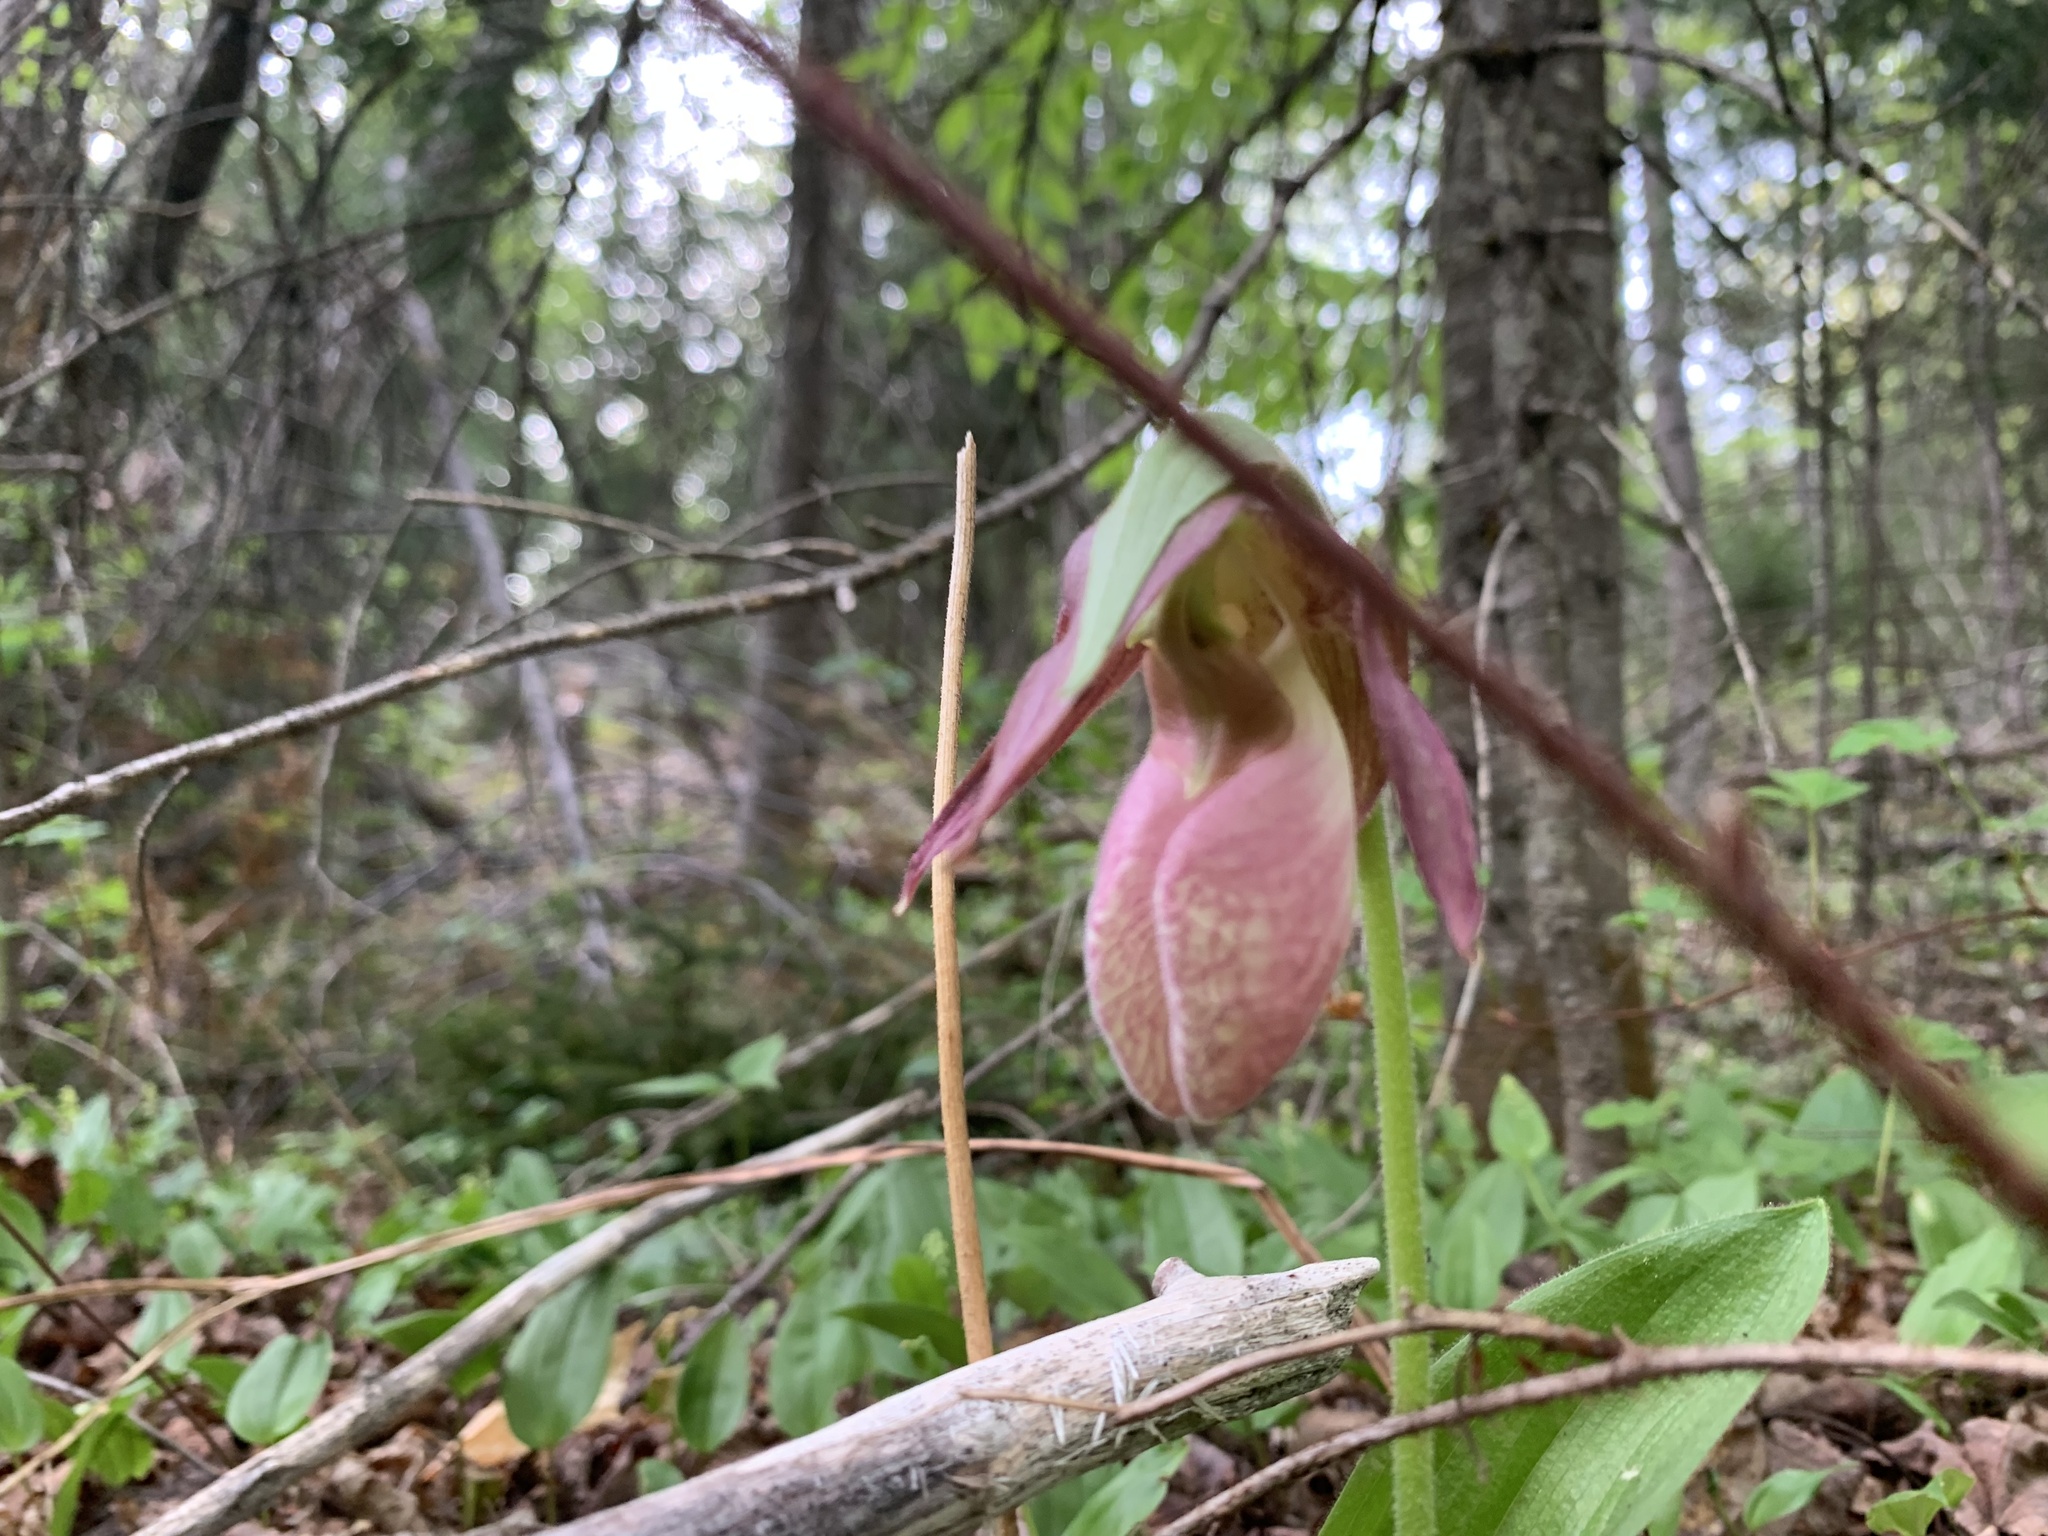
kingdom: Plantae
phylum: Tracheophyta
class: Liliopsida
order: Asparagales
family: Orchidaceae
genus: Cypripedium
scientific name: Cypripedium acaule
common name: Pink lady's-slipper
